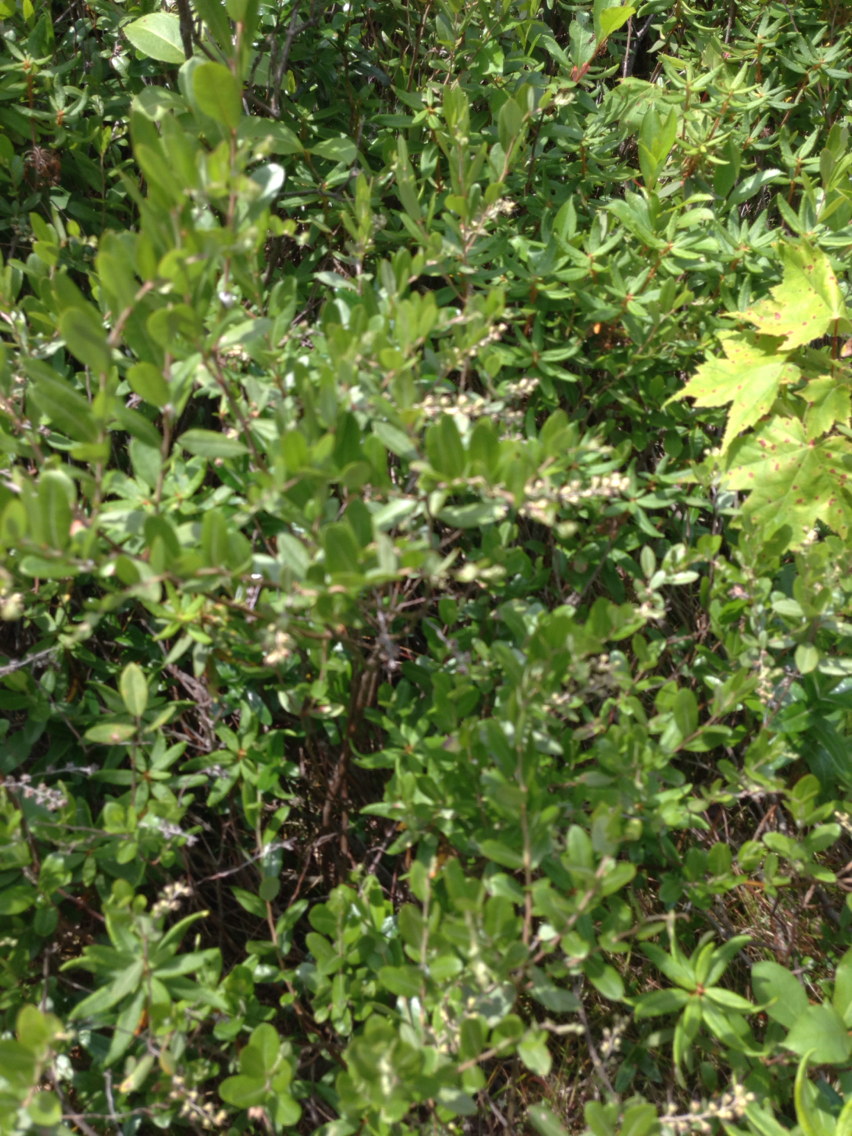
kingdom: Plantae
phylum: Tracheophyta
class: Magnoliopsida
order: Ericales
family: Ericaceae
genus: Chamaedaphne
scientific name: Chamaedaphne calyculata
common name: Leatherleaf
